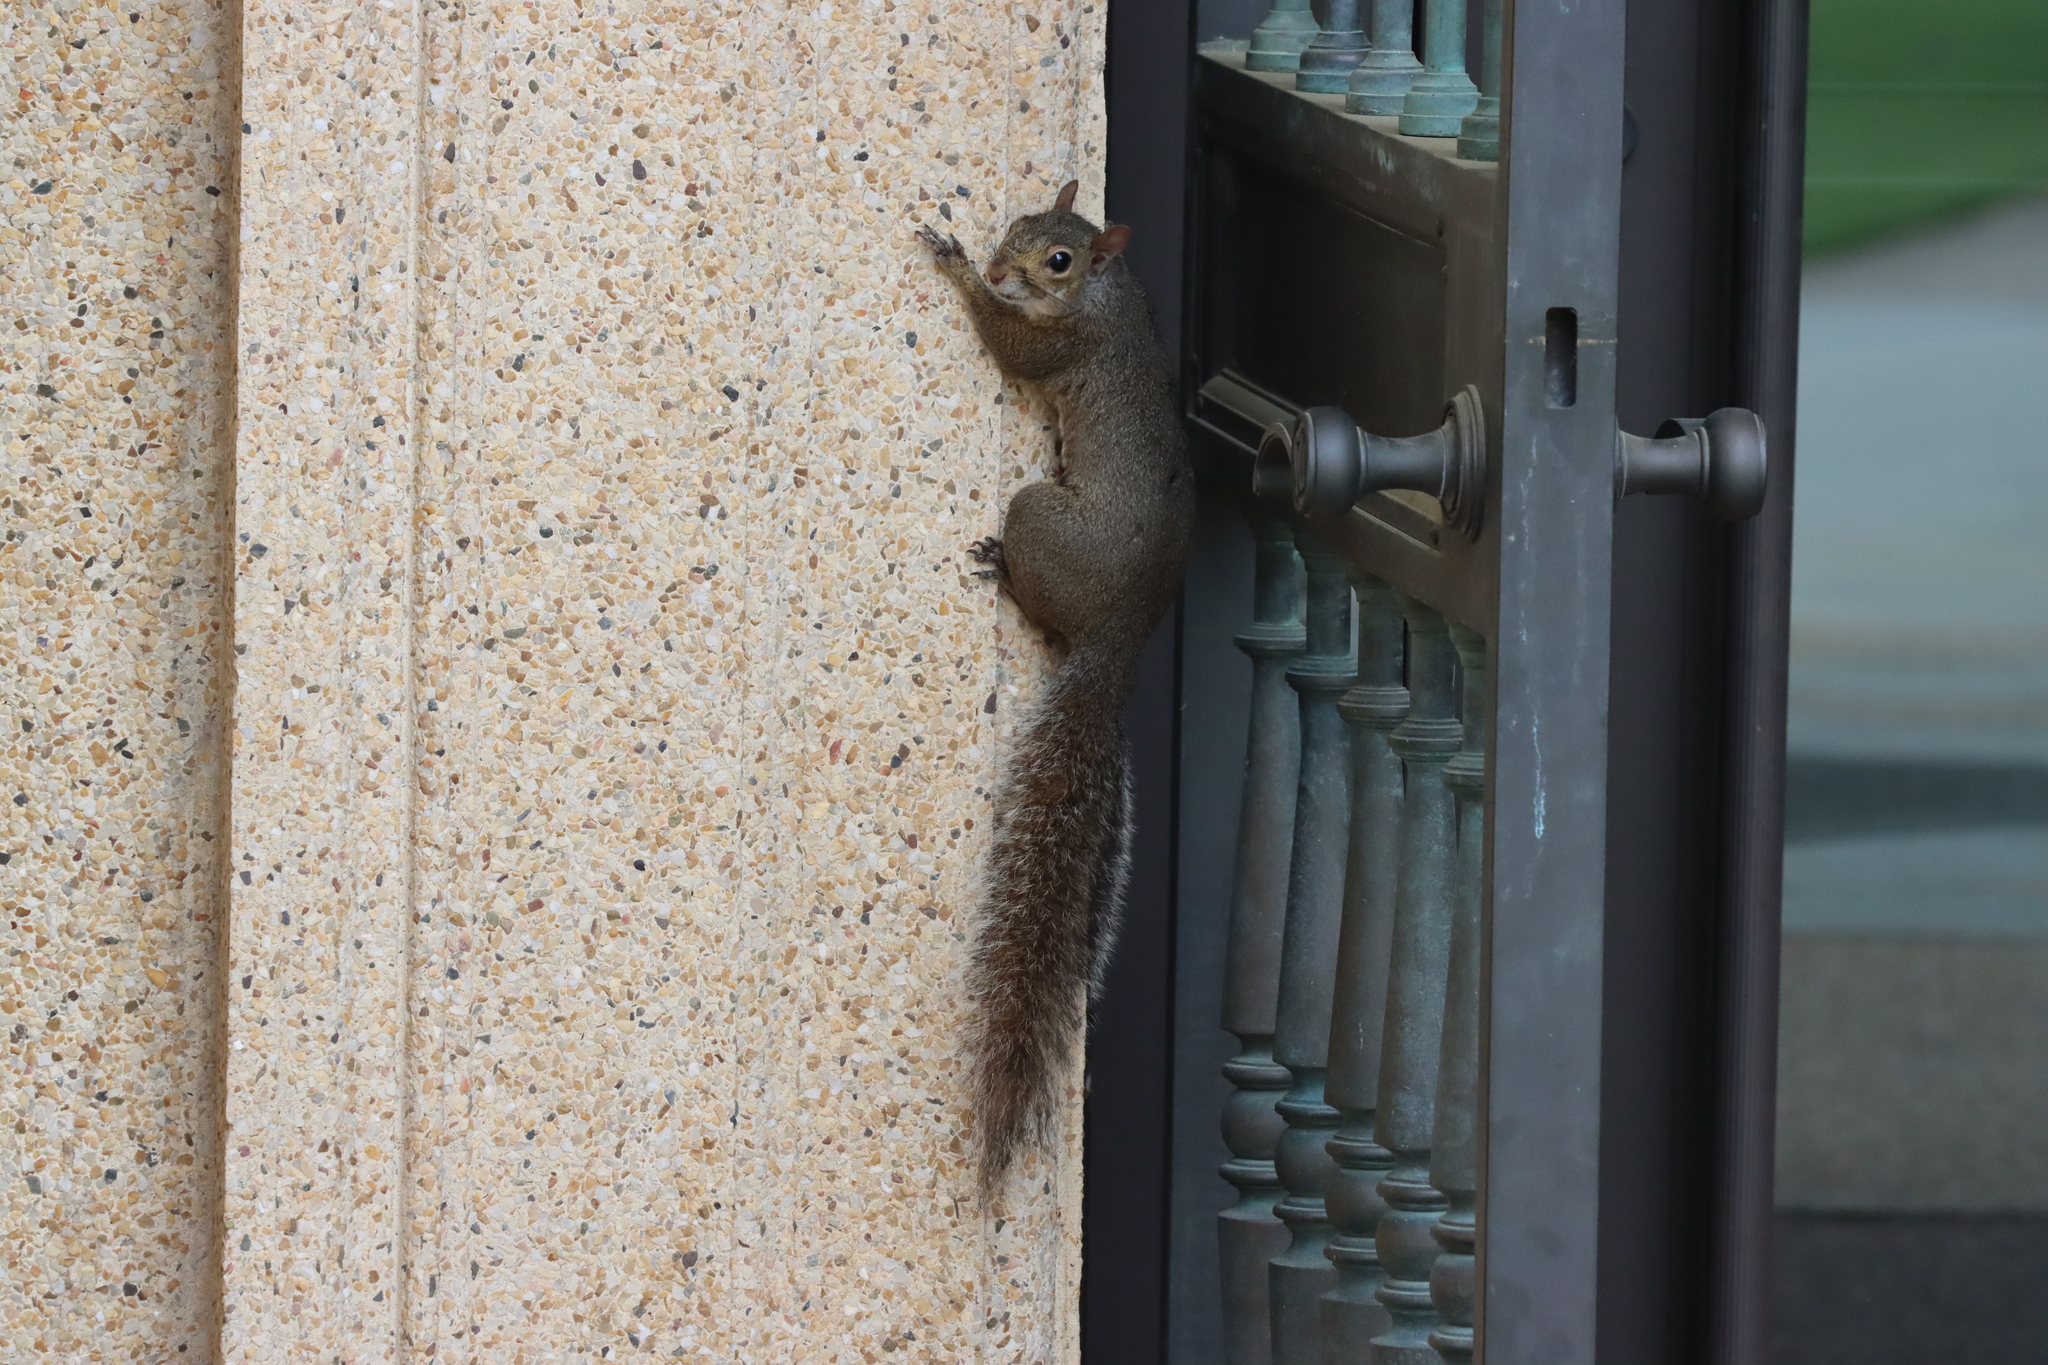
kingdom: Animalia
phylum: Chordata
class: Mammalia
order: Rodentia
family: Sciuridae
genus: Sciurus
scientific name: Sciurus carolinensis
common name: Eastern gray squirrel
